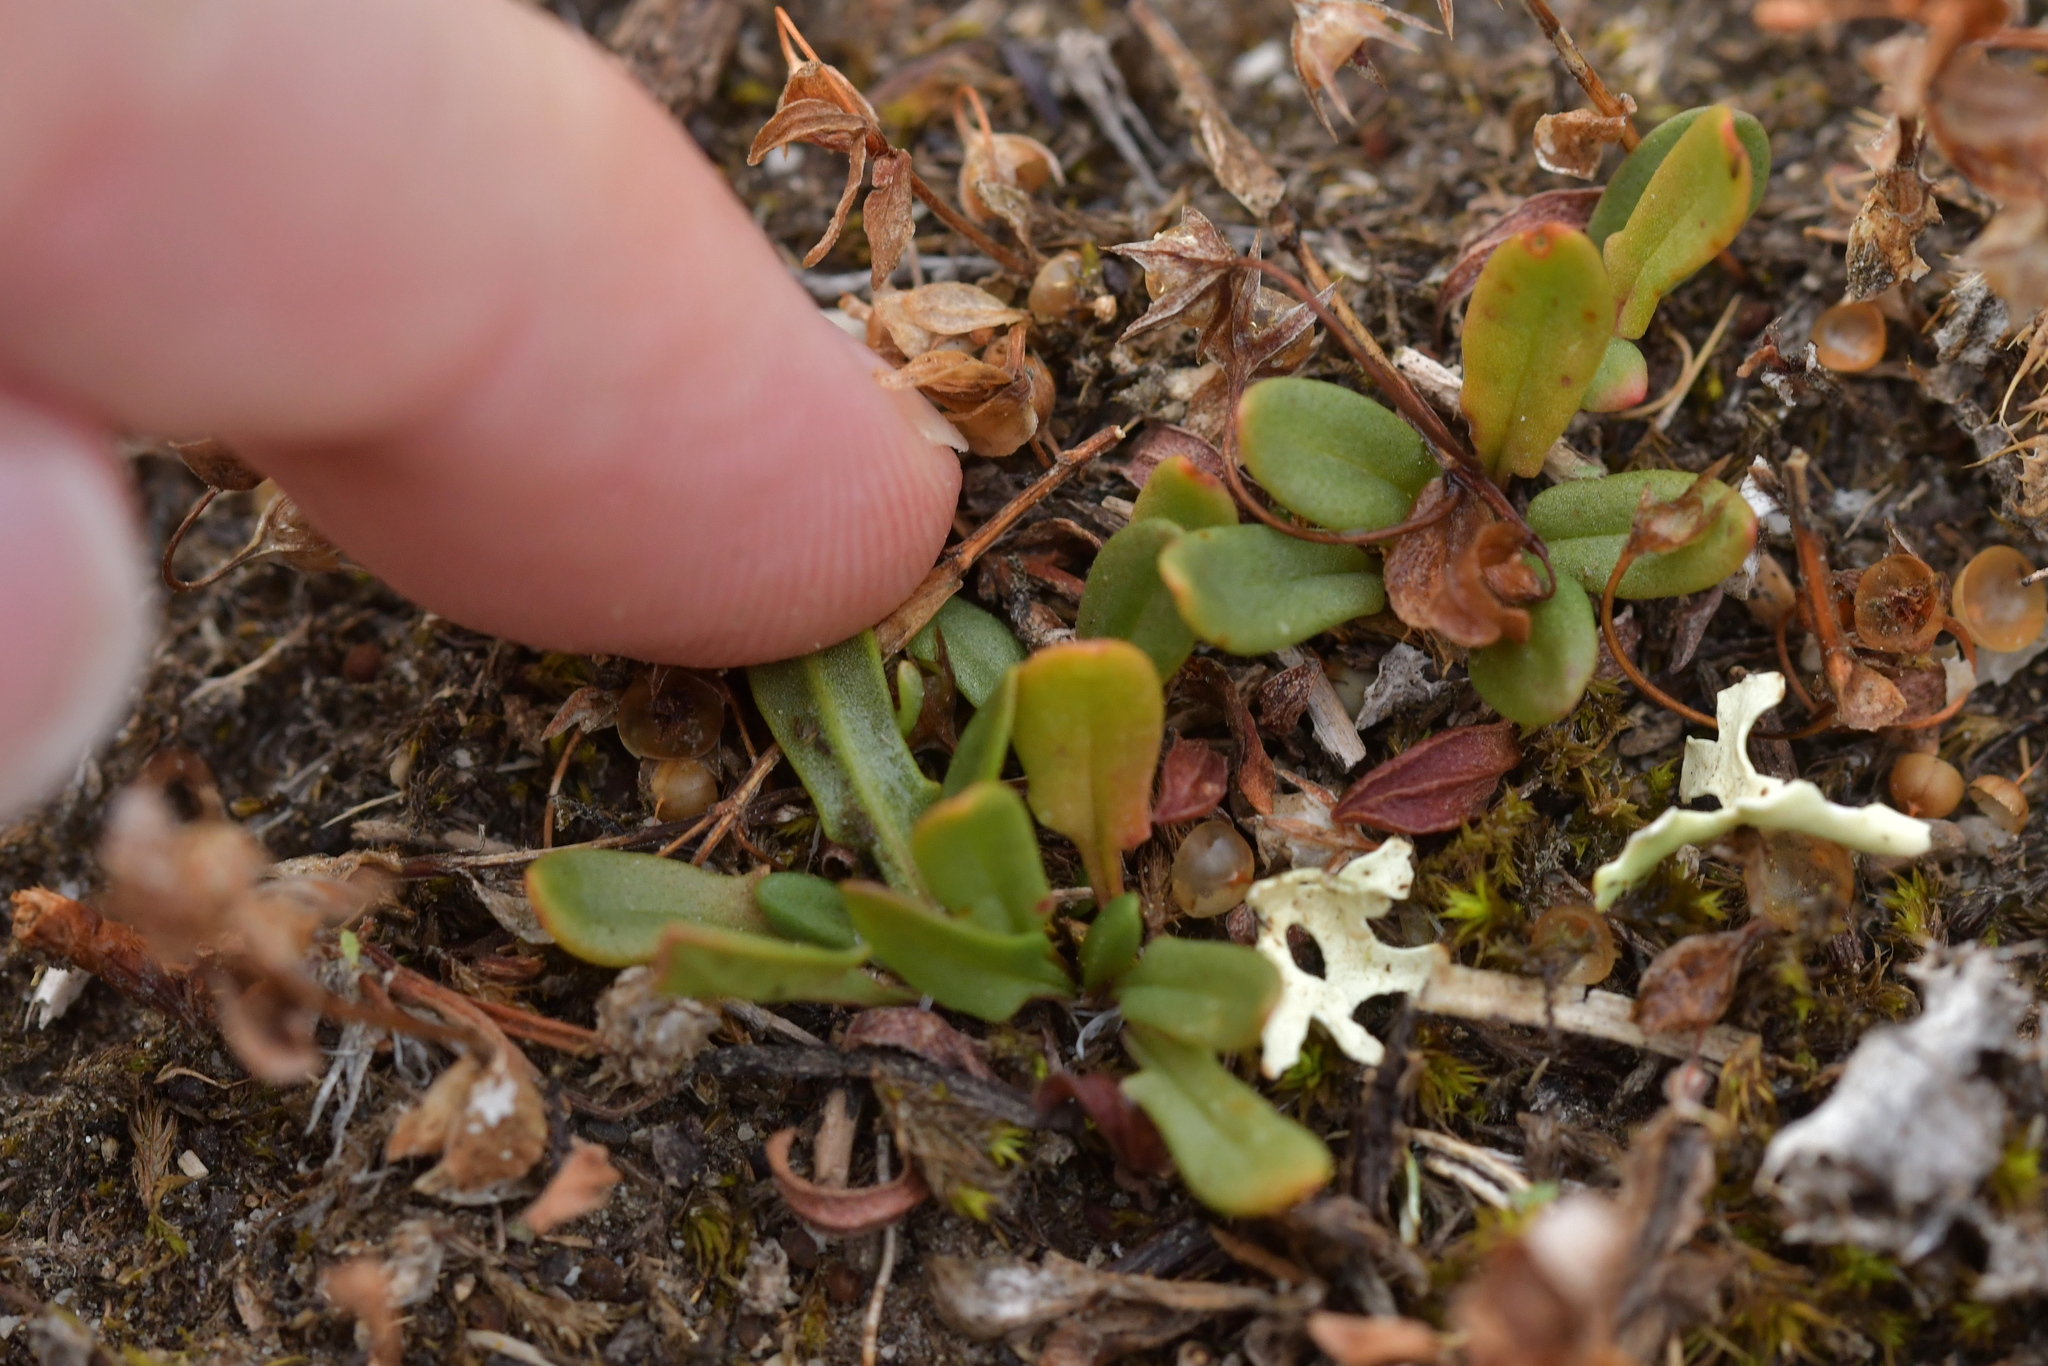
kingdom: Plantae
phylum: Tracheophyta
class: Magnoliopsida
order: Caryophyllales
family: Polygonaceae
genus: Rumex
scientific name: Rumex acetosella
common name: Common sheep sorrel
